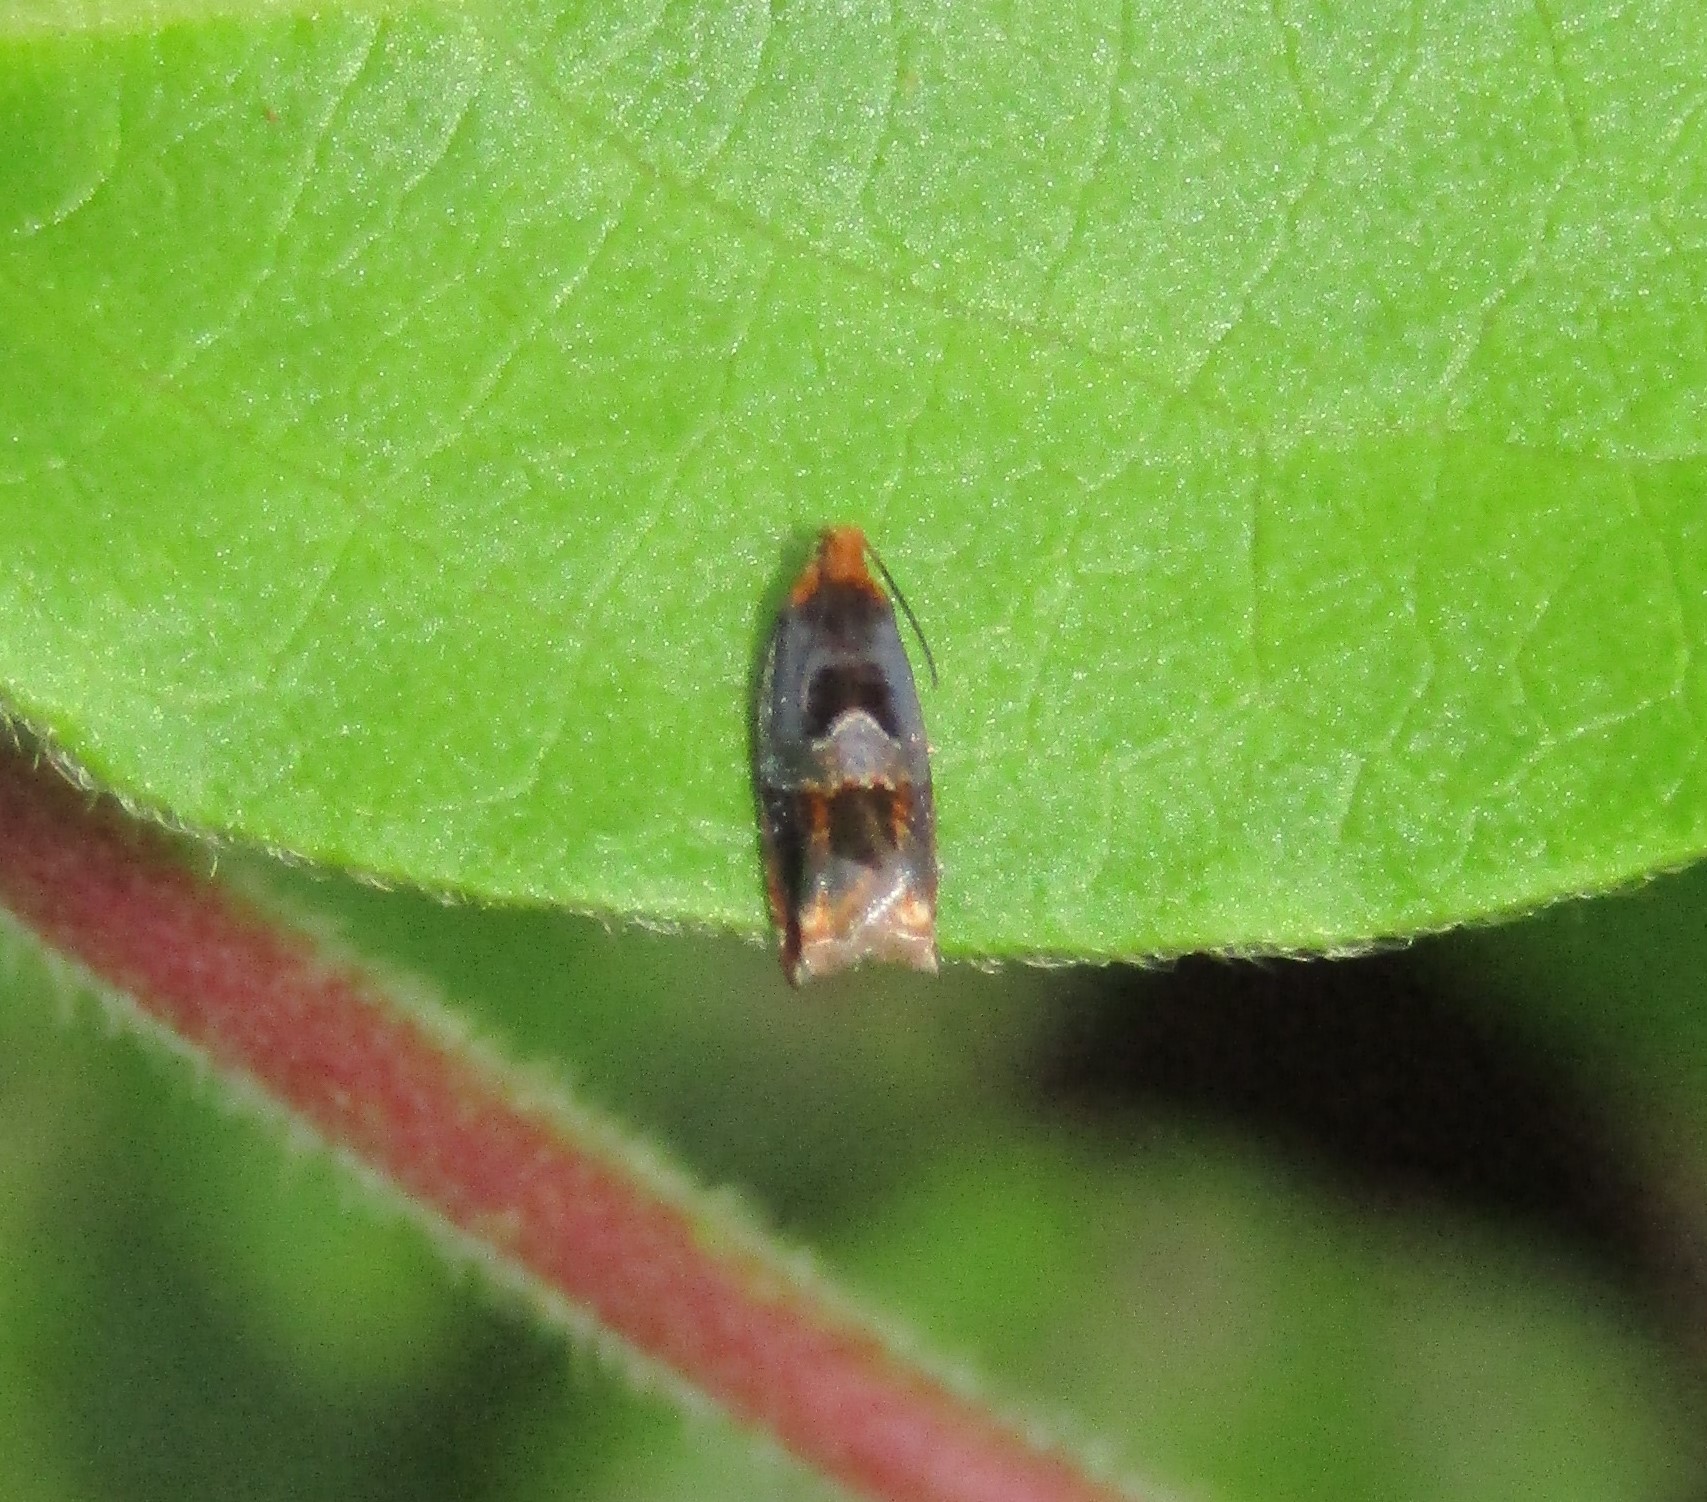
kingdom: Animalia
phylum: Arthropoda
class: Insecta
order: Lepidoptera
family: Tortricidae
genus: Ancylis
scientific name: Ancylis muricana
